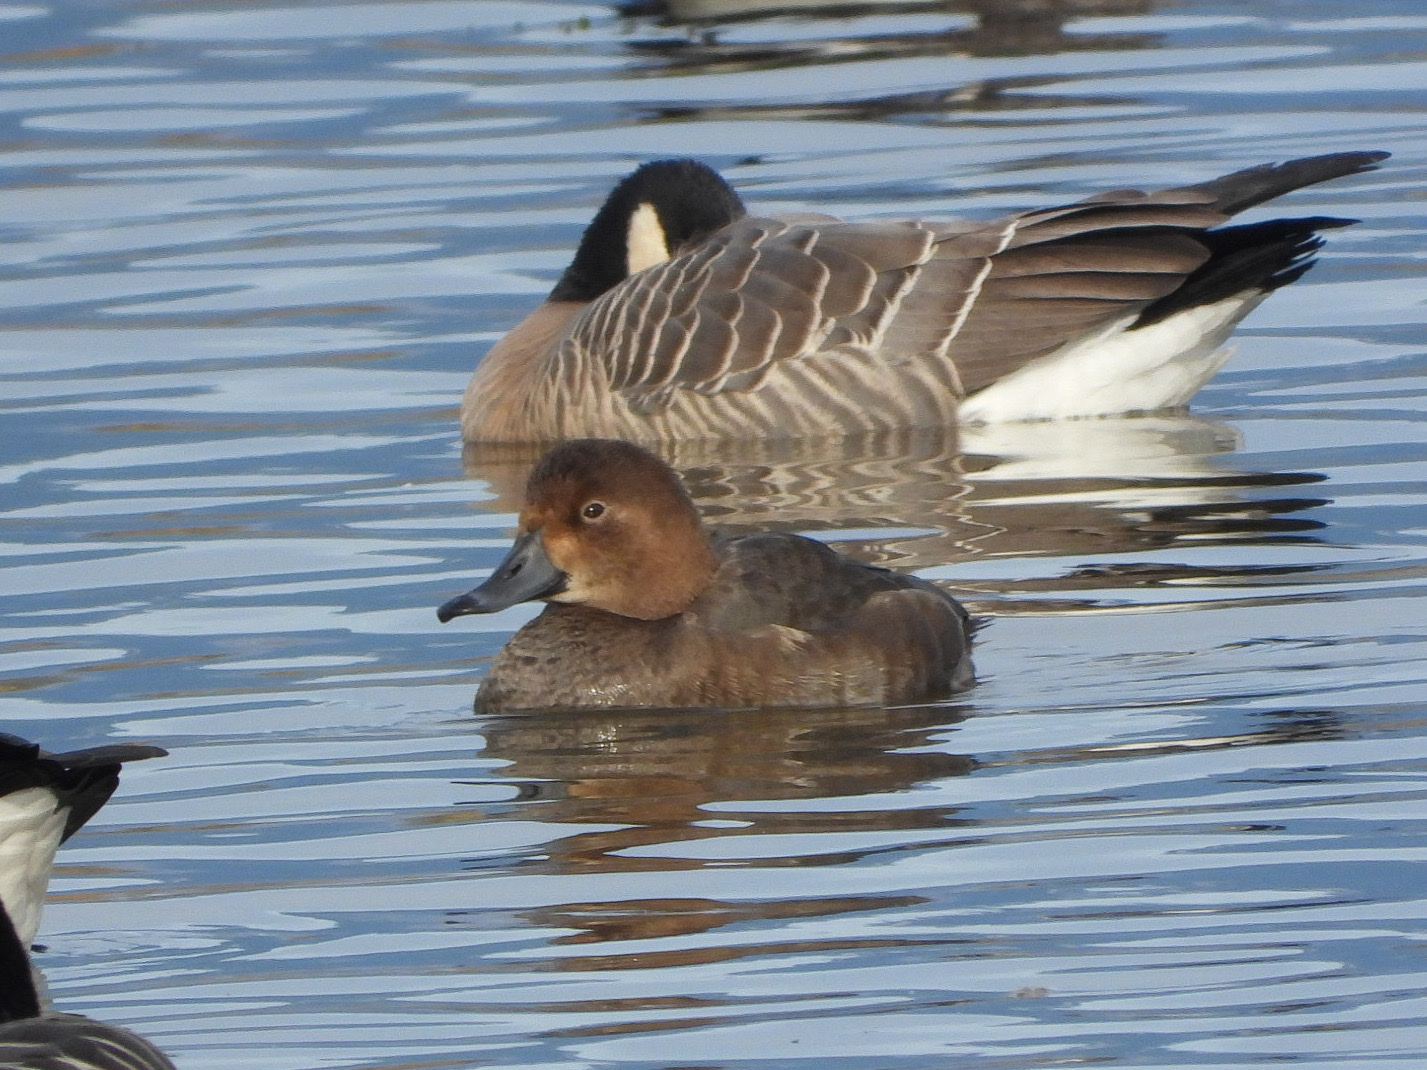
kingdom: Animalia
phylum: Chordata
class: Aves
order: Anseriformes
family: Anatidae
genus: Aythya
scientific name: Aythya americana
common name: Redhead
